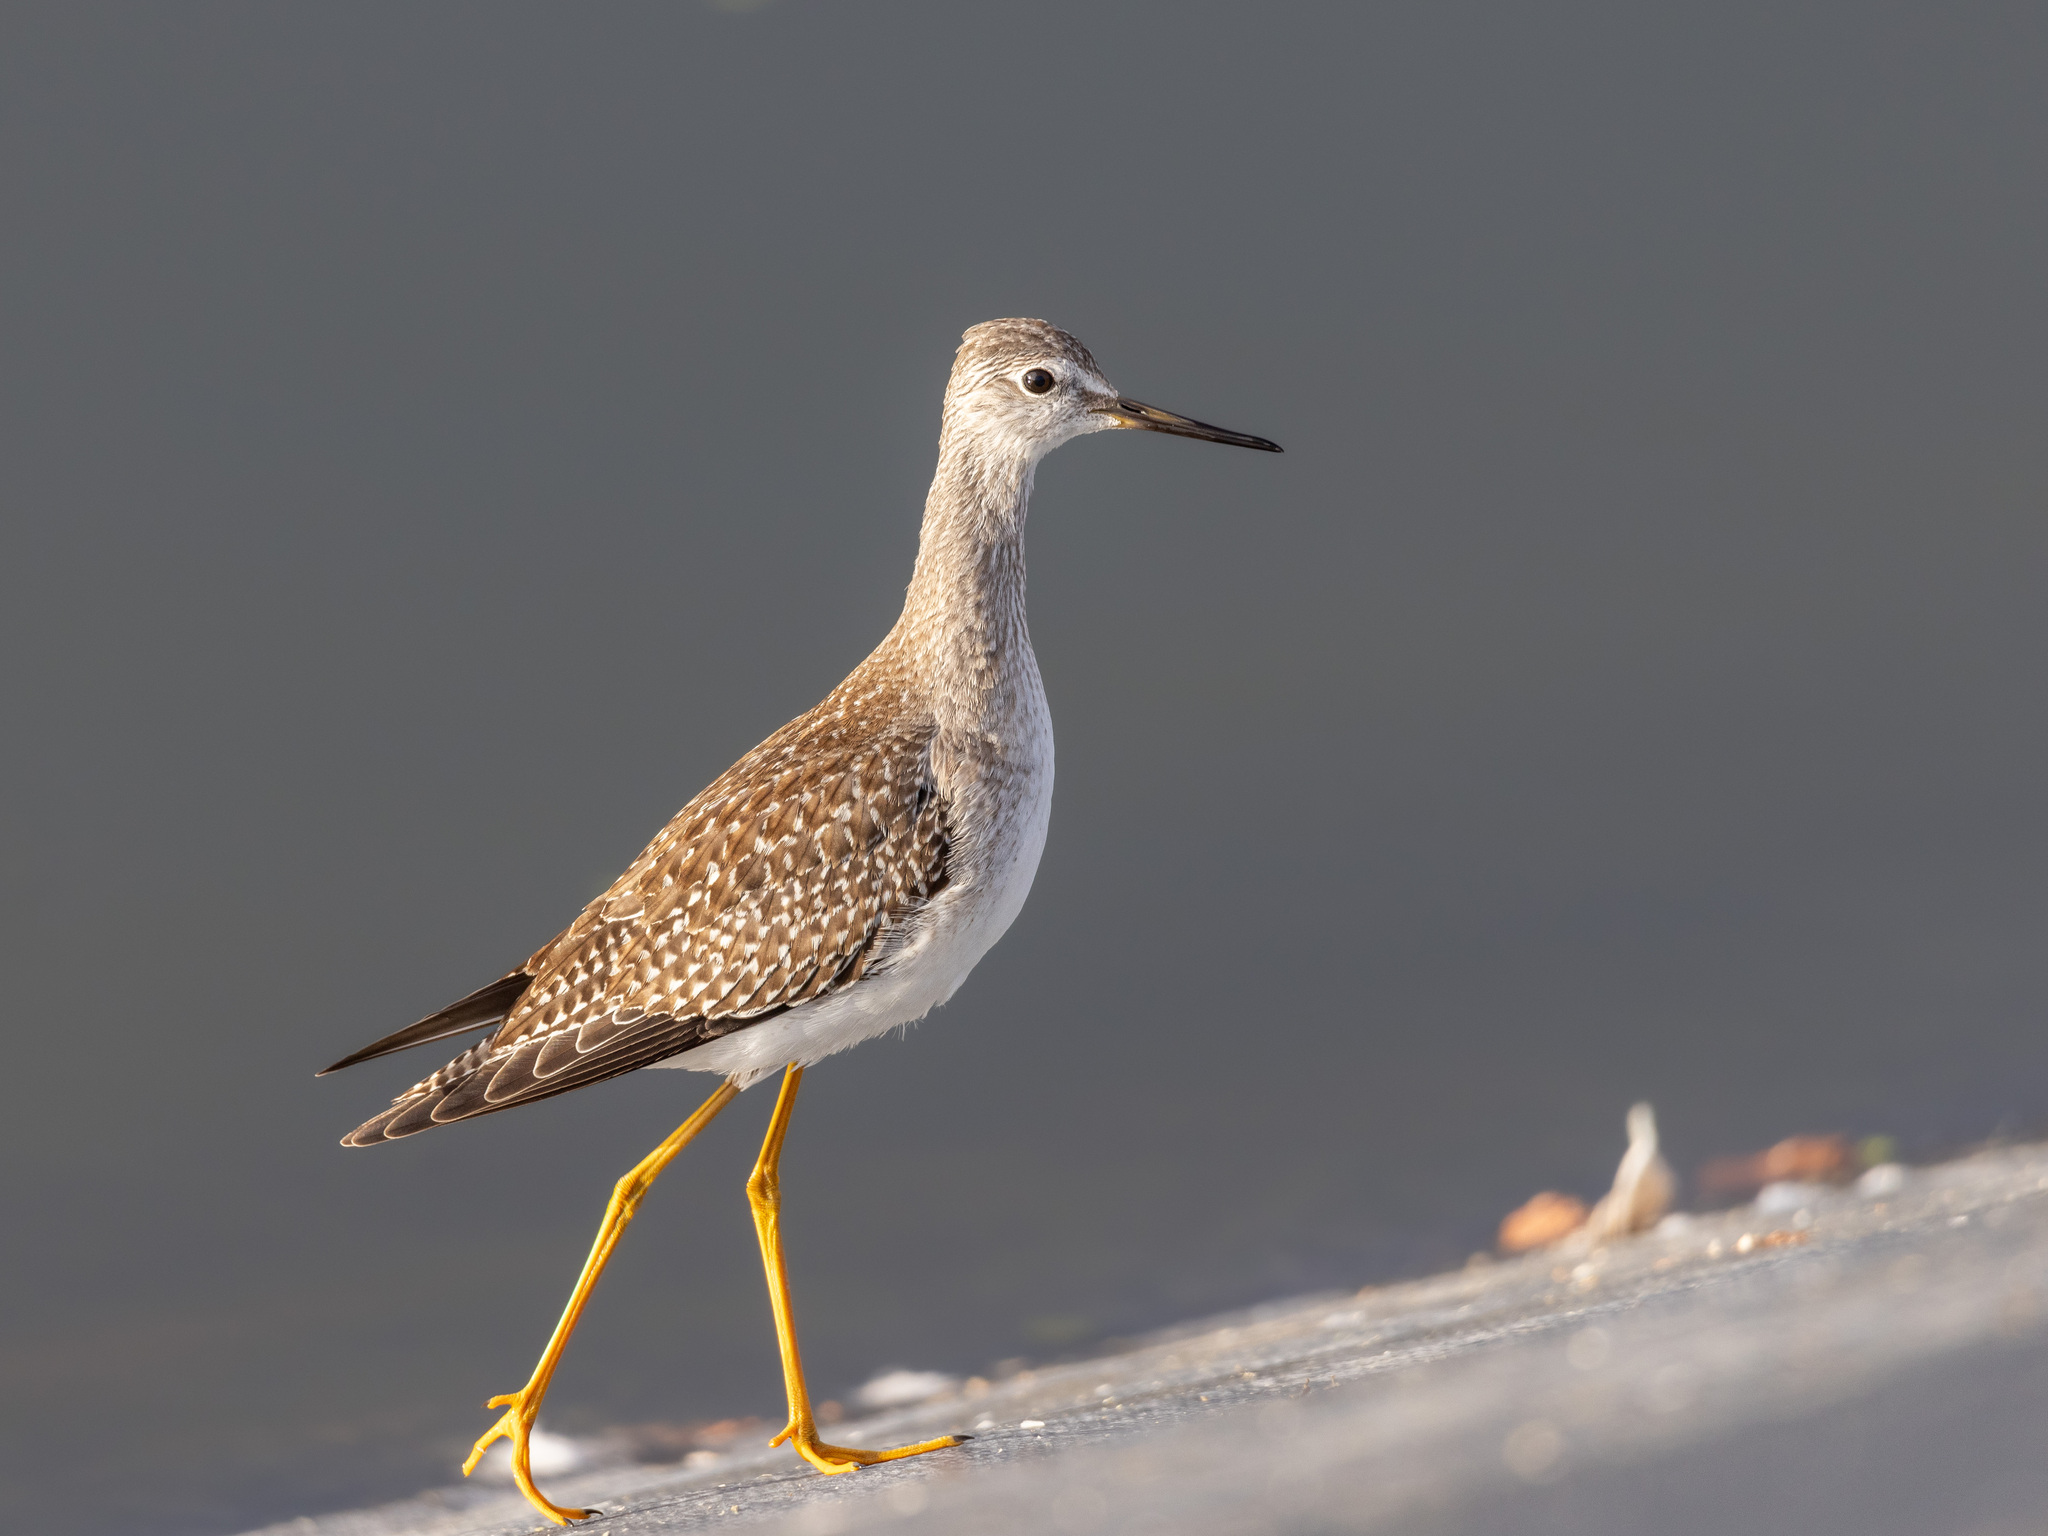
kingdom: Animalia
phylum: Chordata
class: Aves
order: Charadriiformes
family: Scolopacidae
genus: Tringa
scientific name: Tringa flavipes
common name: Lesser yellowlegs
